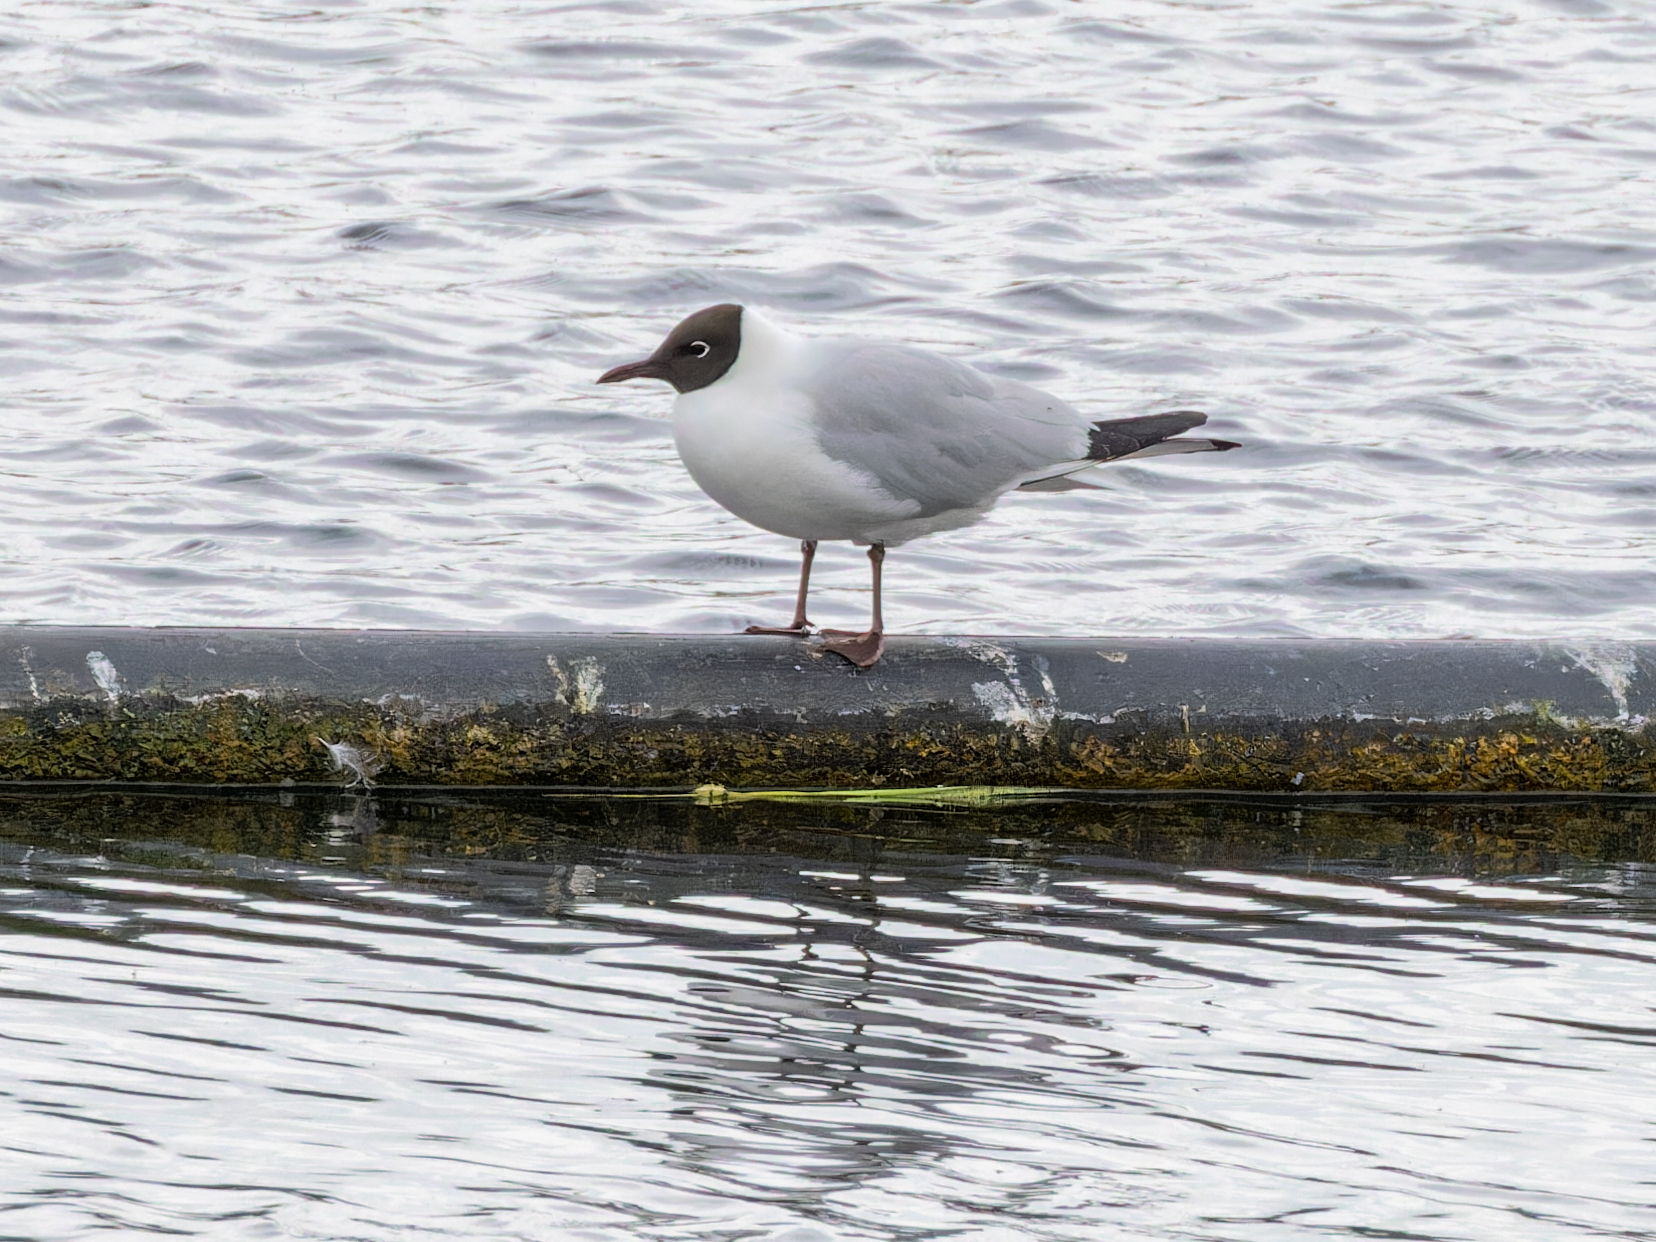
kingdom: Animalia
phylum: Chordata
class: Aves
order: Charadriiformes
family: Laridae
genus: Chroicocephalus
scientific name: Chroicocephalus ridibundus
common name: Black-headed gull
